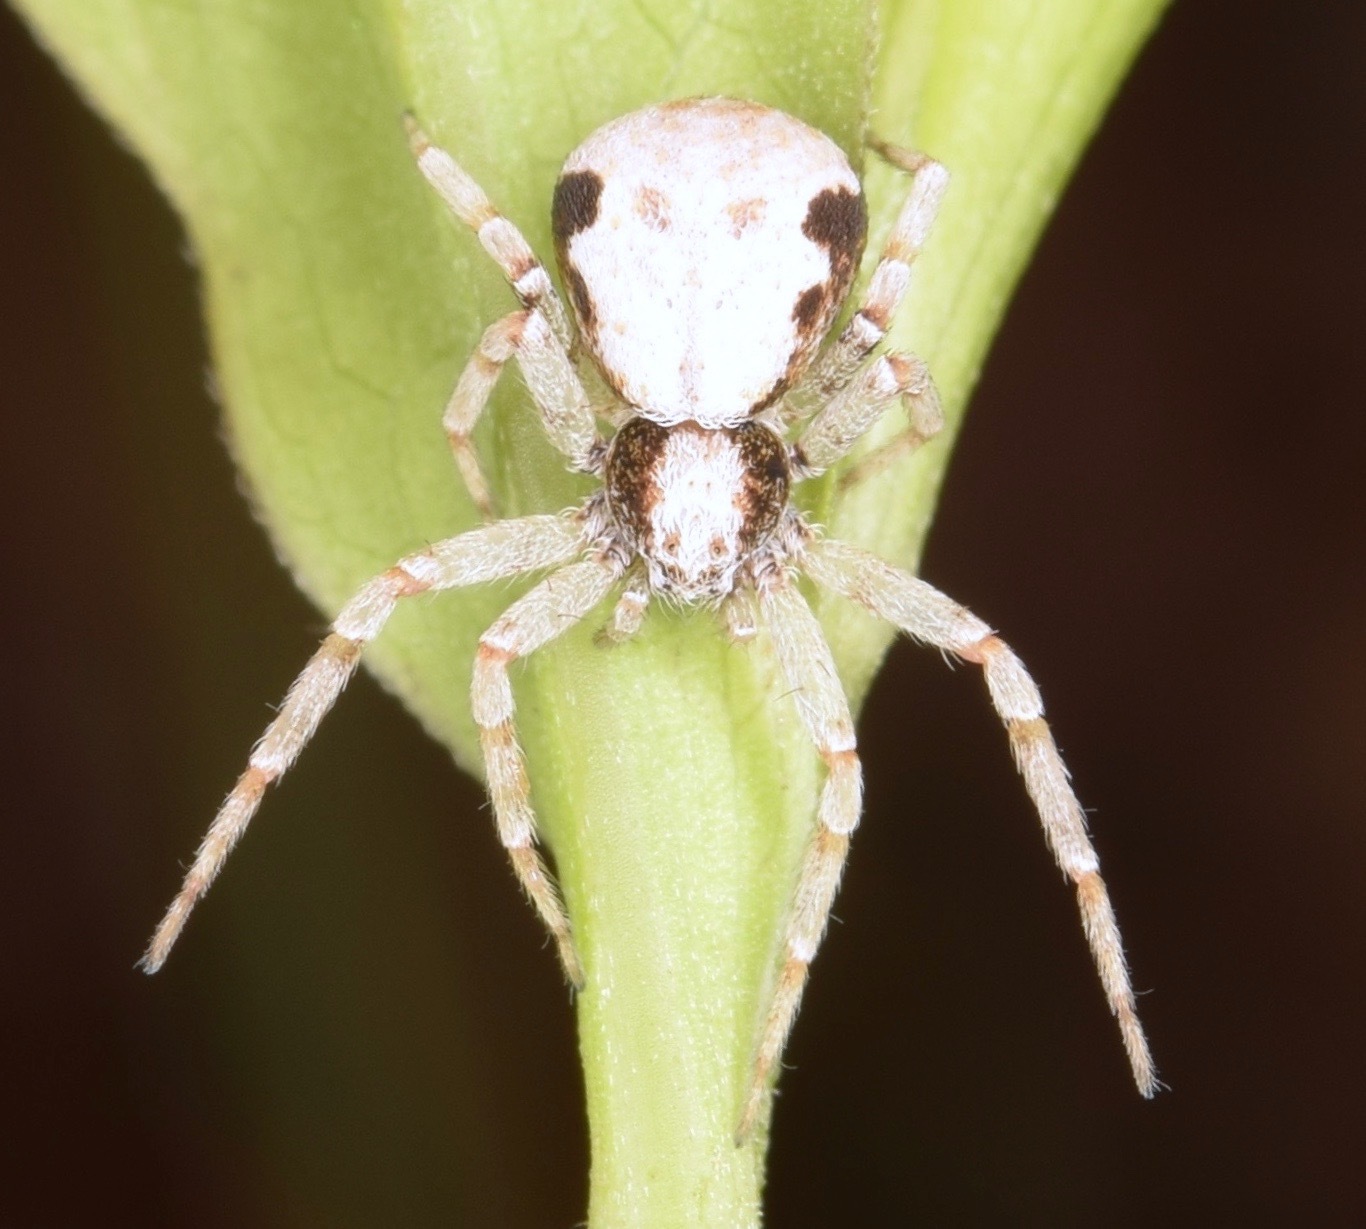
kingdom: Animalia
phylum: Arthropoda
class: Arachnida
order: Araneae
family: Philodromidae
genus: Philodromus
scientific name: Philodromus marxi
